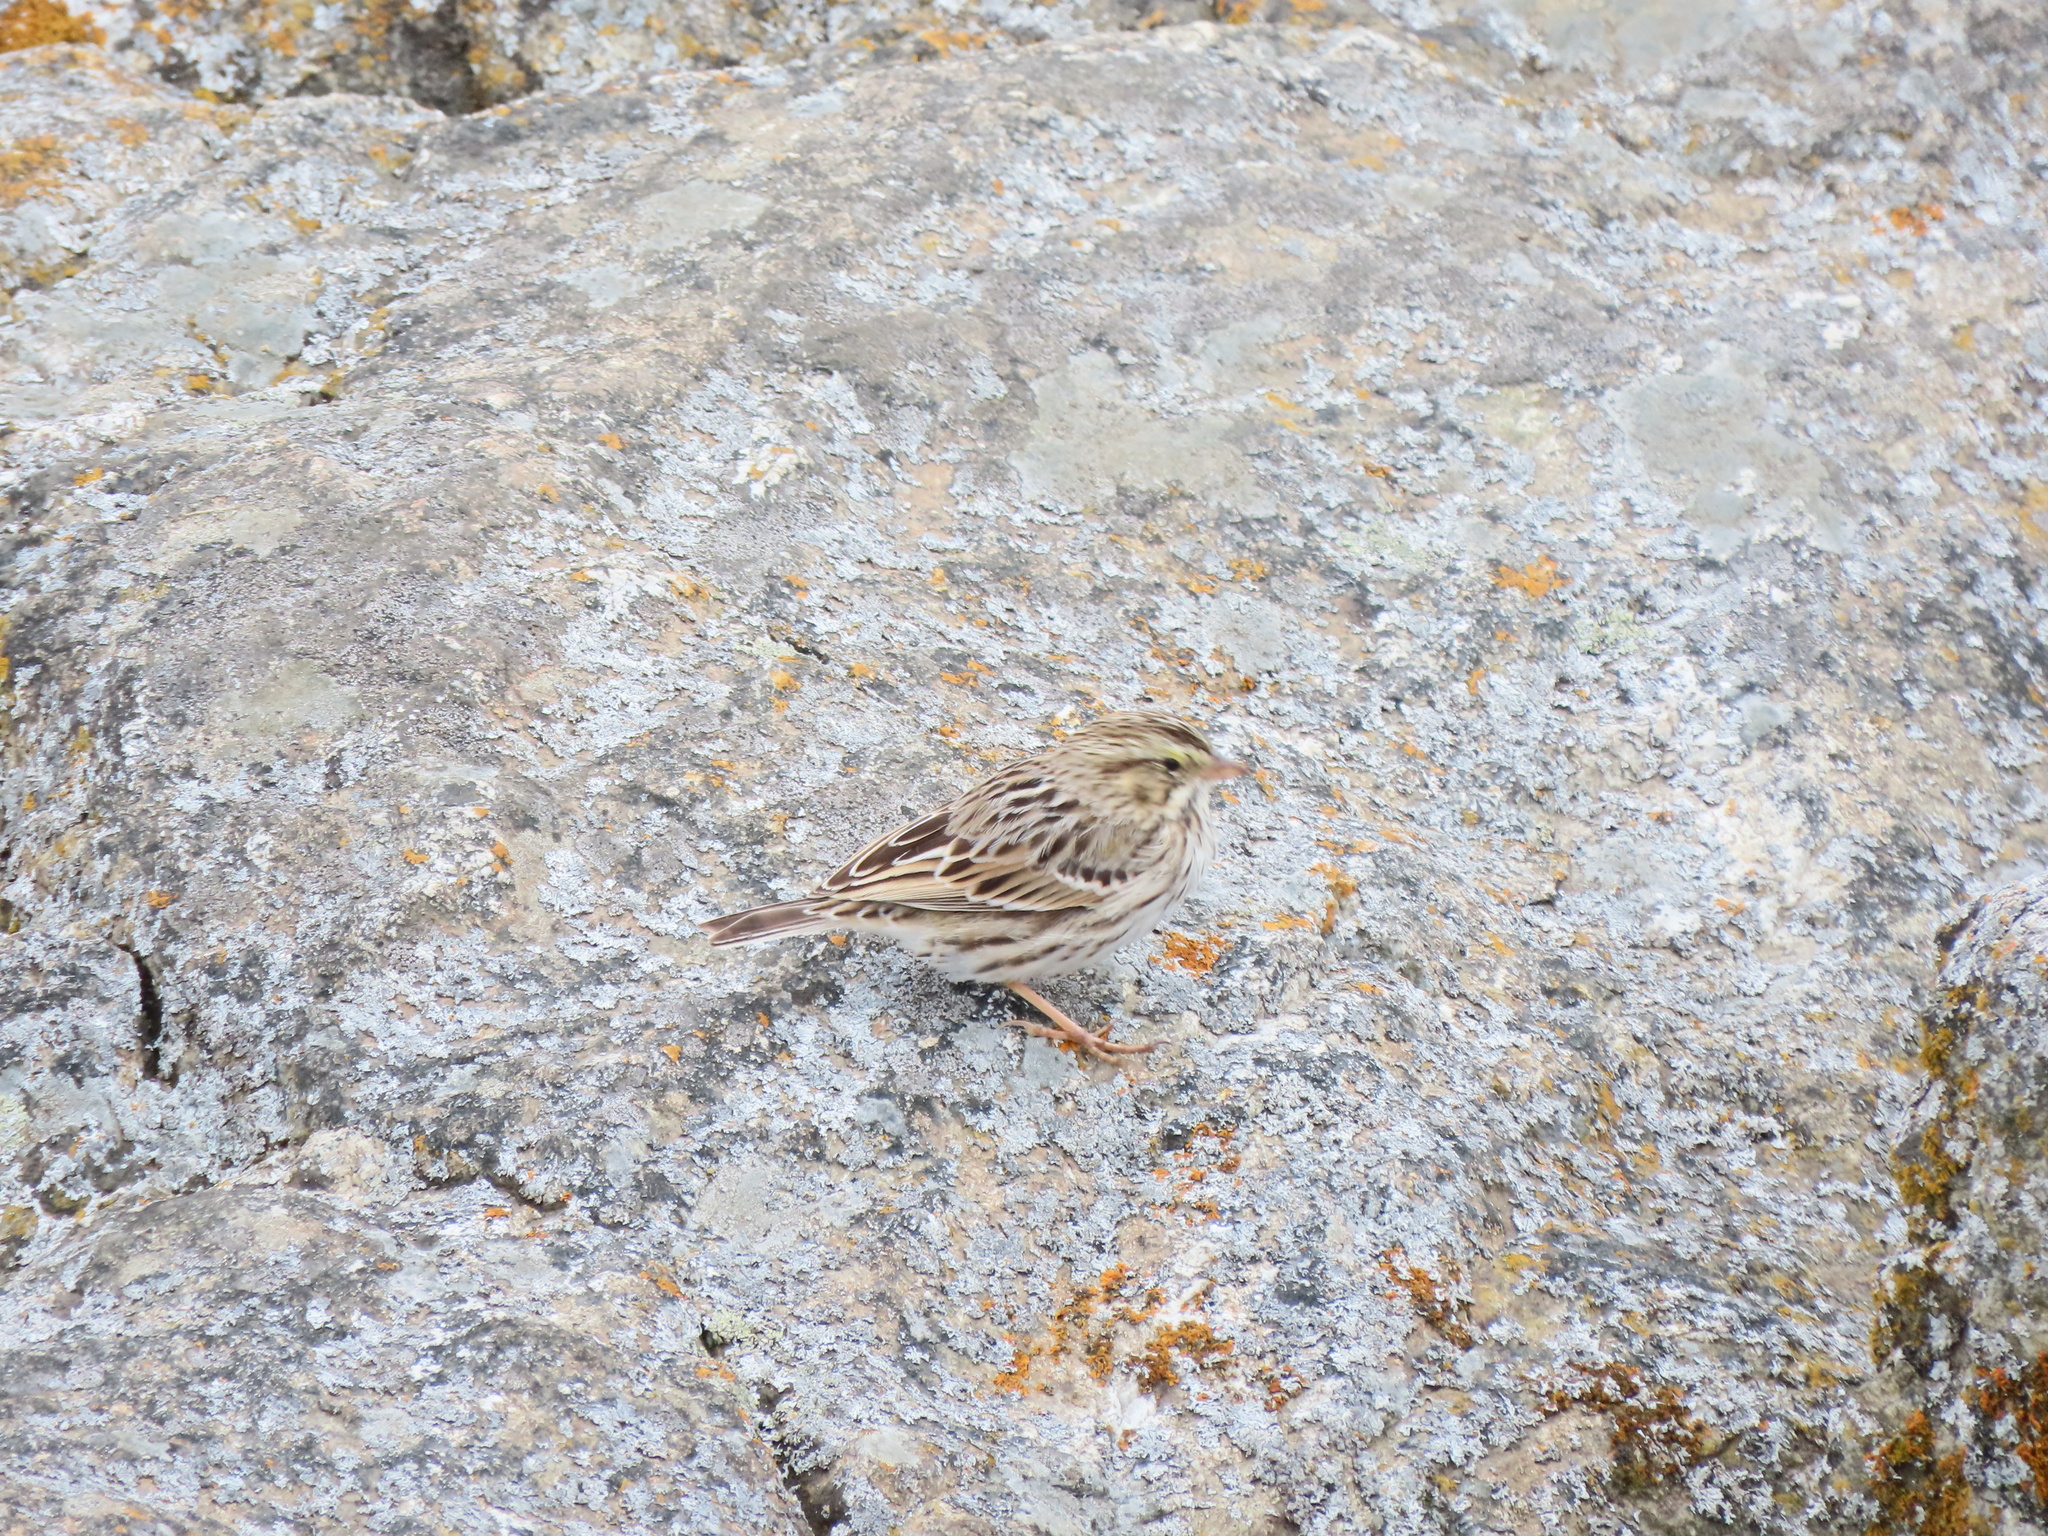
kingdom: Animalia
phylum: Chordata
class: Aves
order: Passeriformes
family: Passerellidae
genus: Passerculus
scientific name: Passerculus sandwichensis
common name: Savannah sparrow
